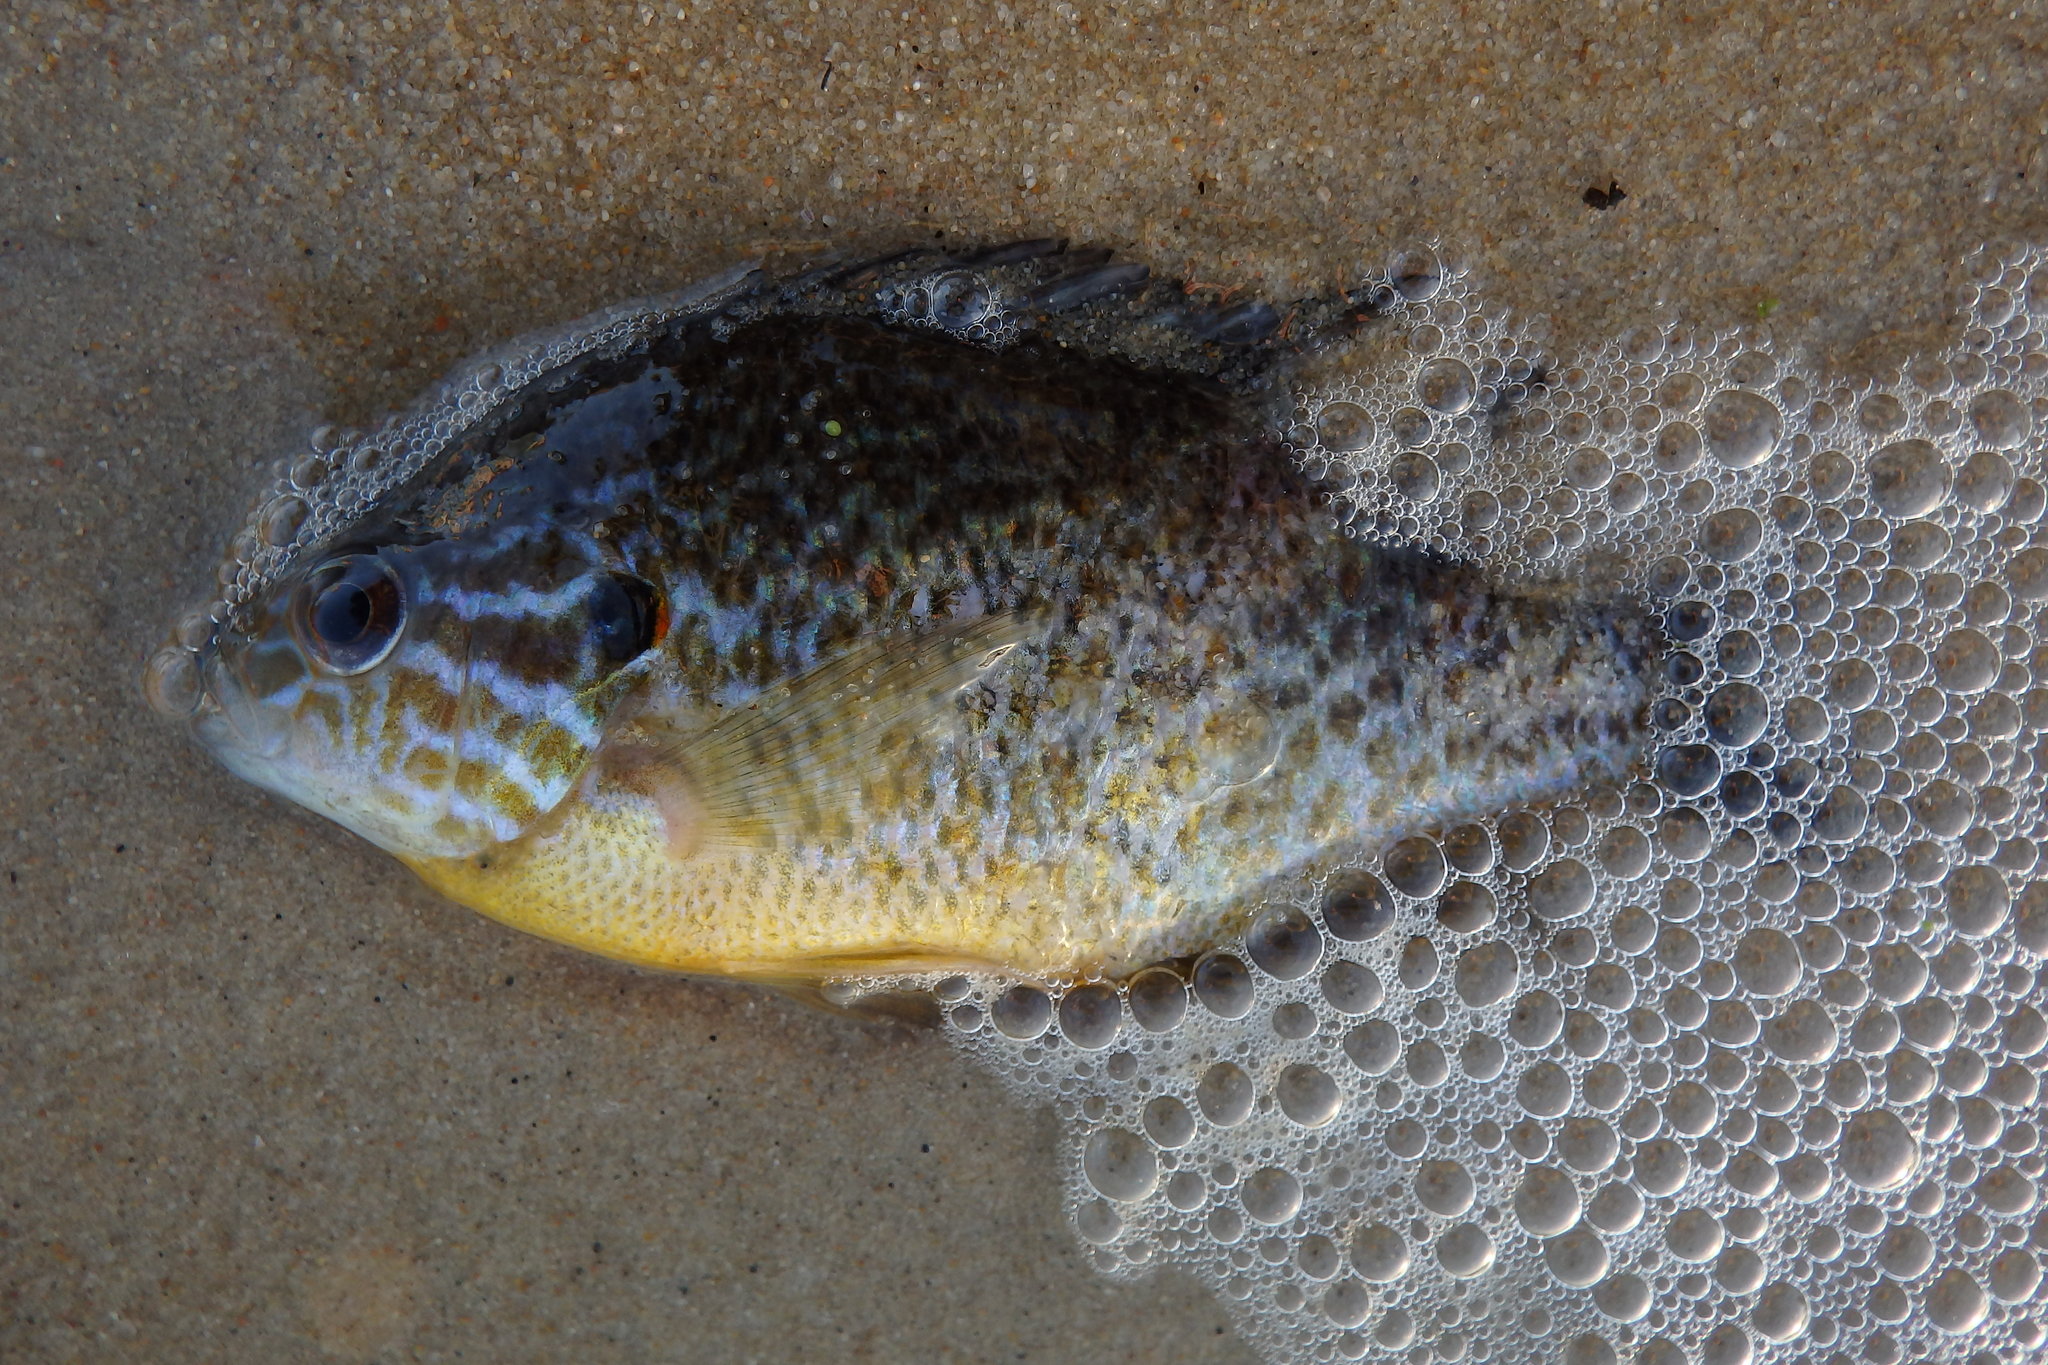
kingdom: Animalia
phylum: Chordata
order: Perciformes
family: Centrarchidae
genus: Lepomis
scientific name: Lepomis gibbosus
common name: Pumpkinseed
